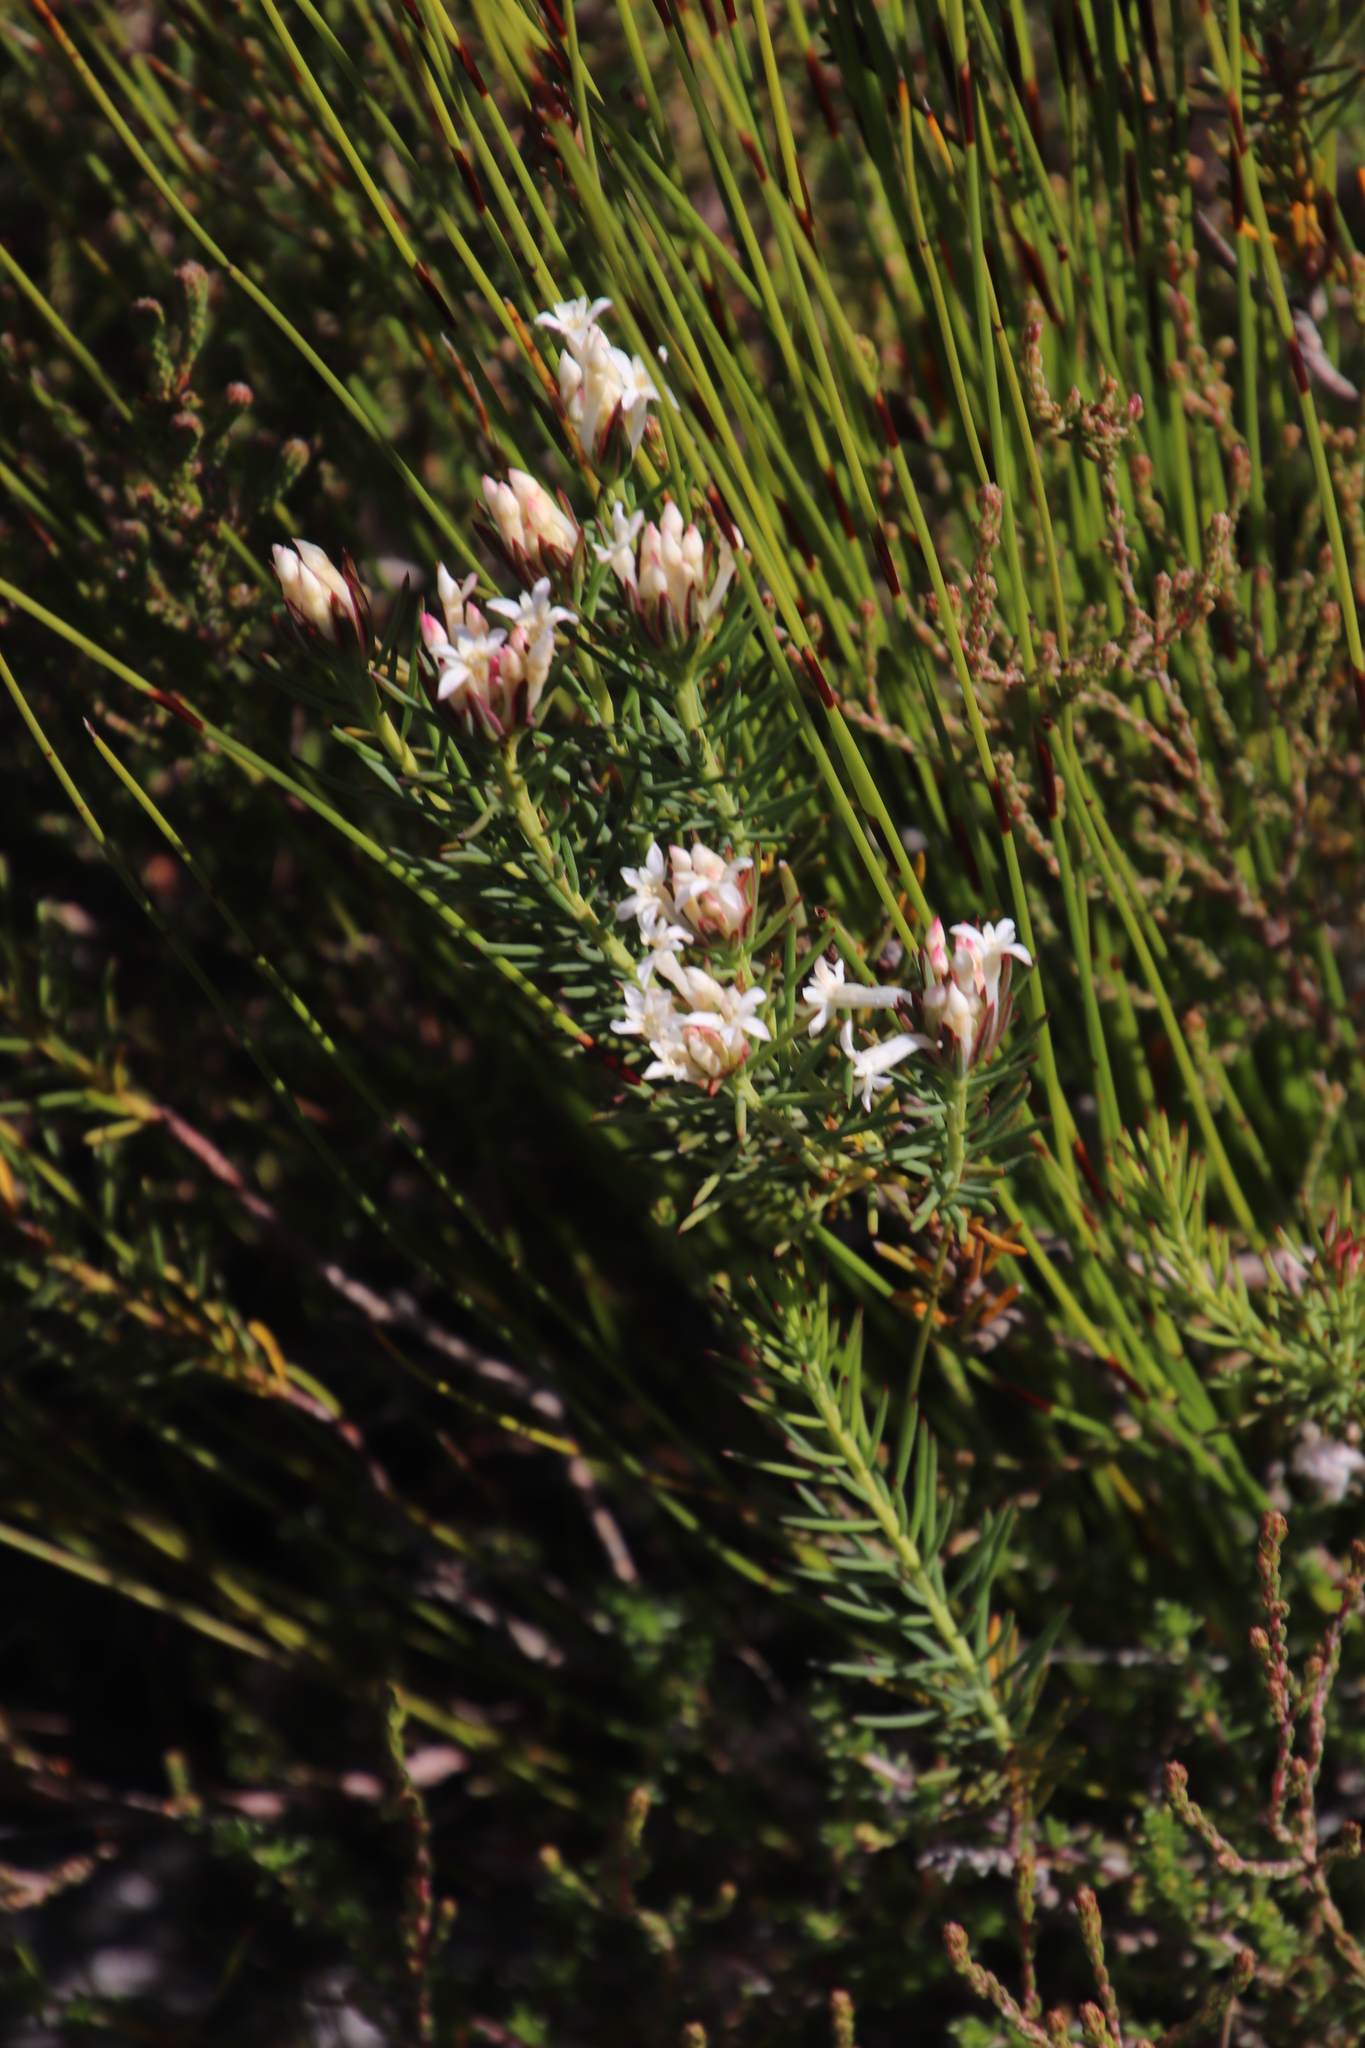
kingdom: Plantae
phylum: Tracheophyta
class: Magnoliopsida
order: Malvales
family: Thymelaeaceae
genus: Gnidia
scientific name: Gnidia pinifolia
